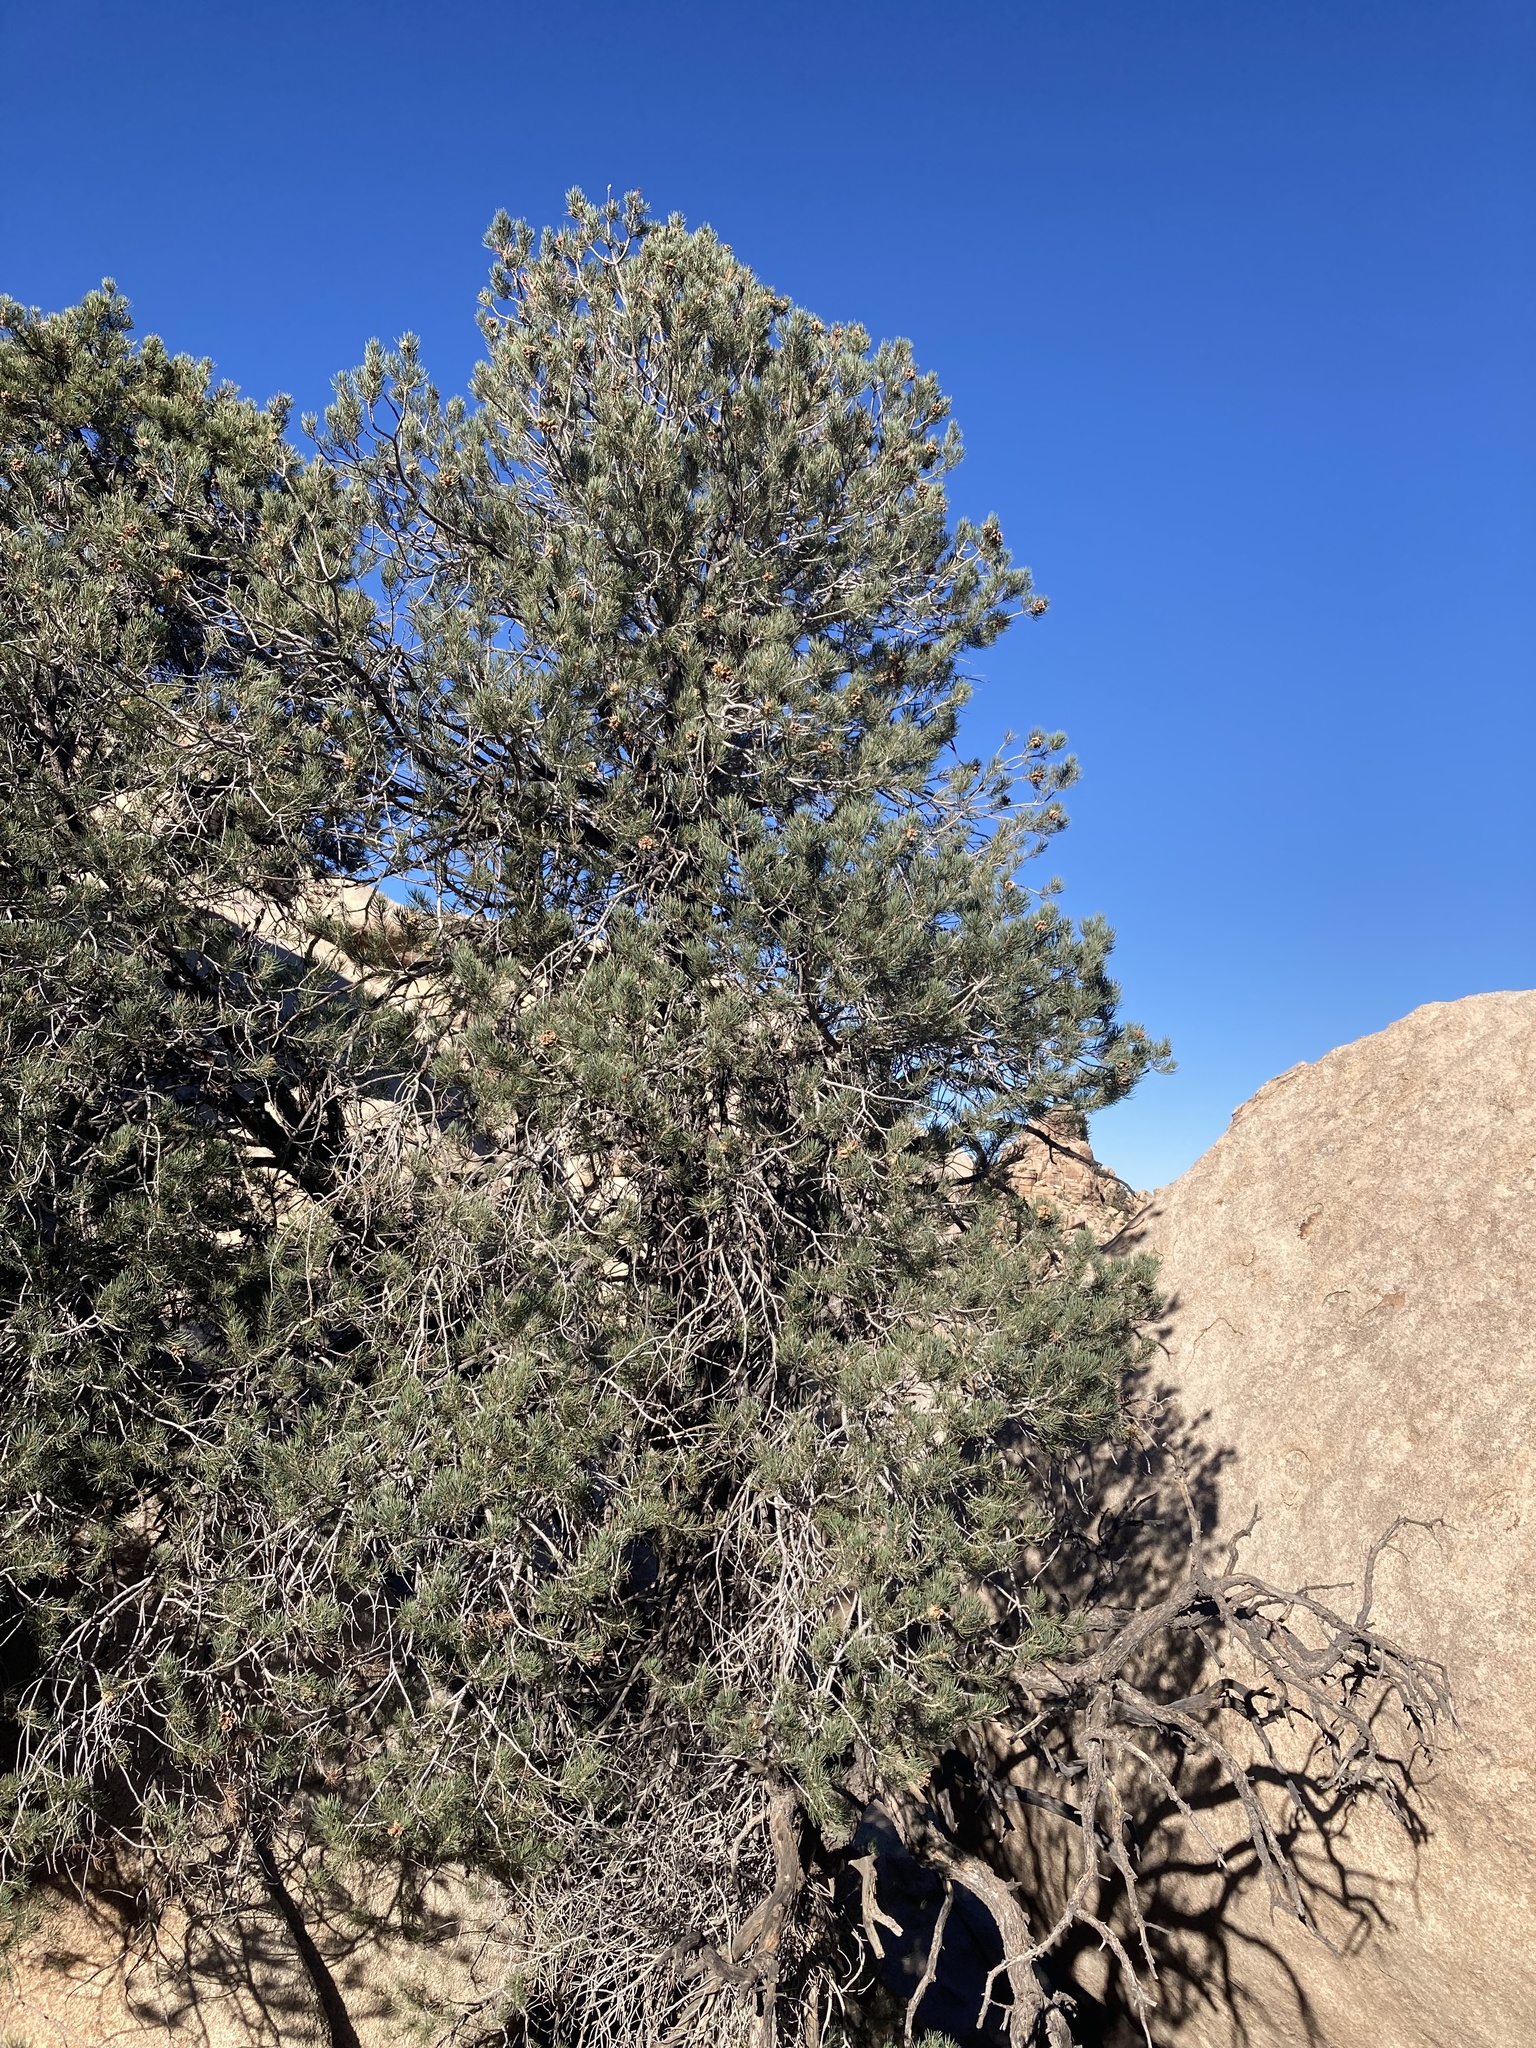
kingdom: Plantae
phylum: Tracheophyta
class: Pinopsida
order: Pinales
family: Pinaceae
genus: Pinus
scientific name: Pinus monophylla
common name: One-leaved nut pine
